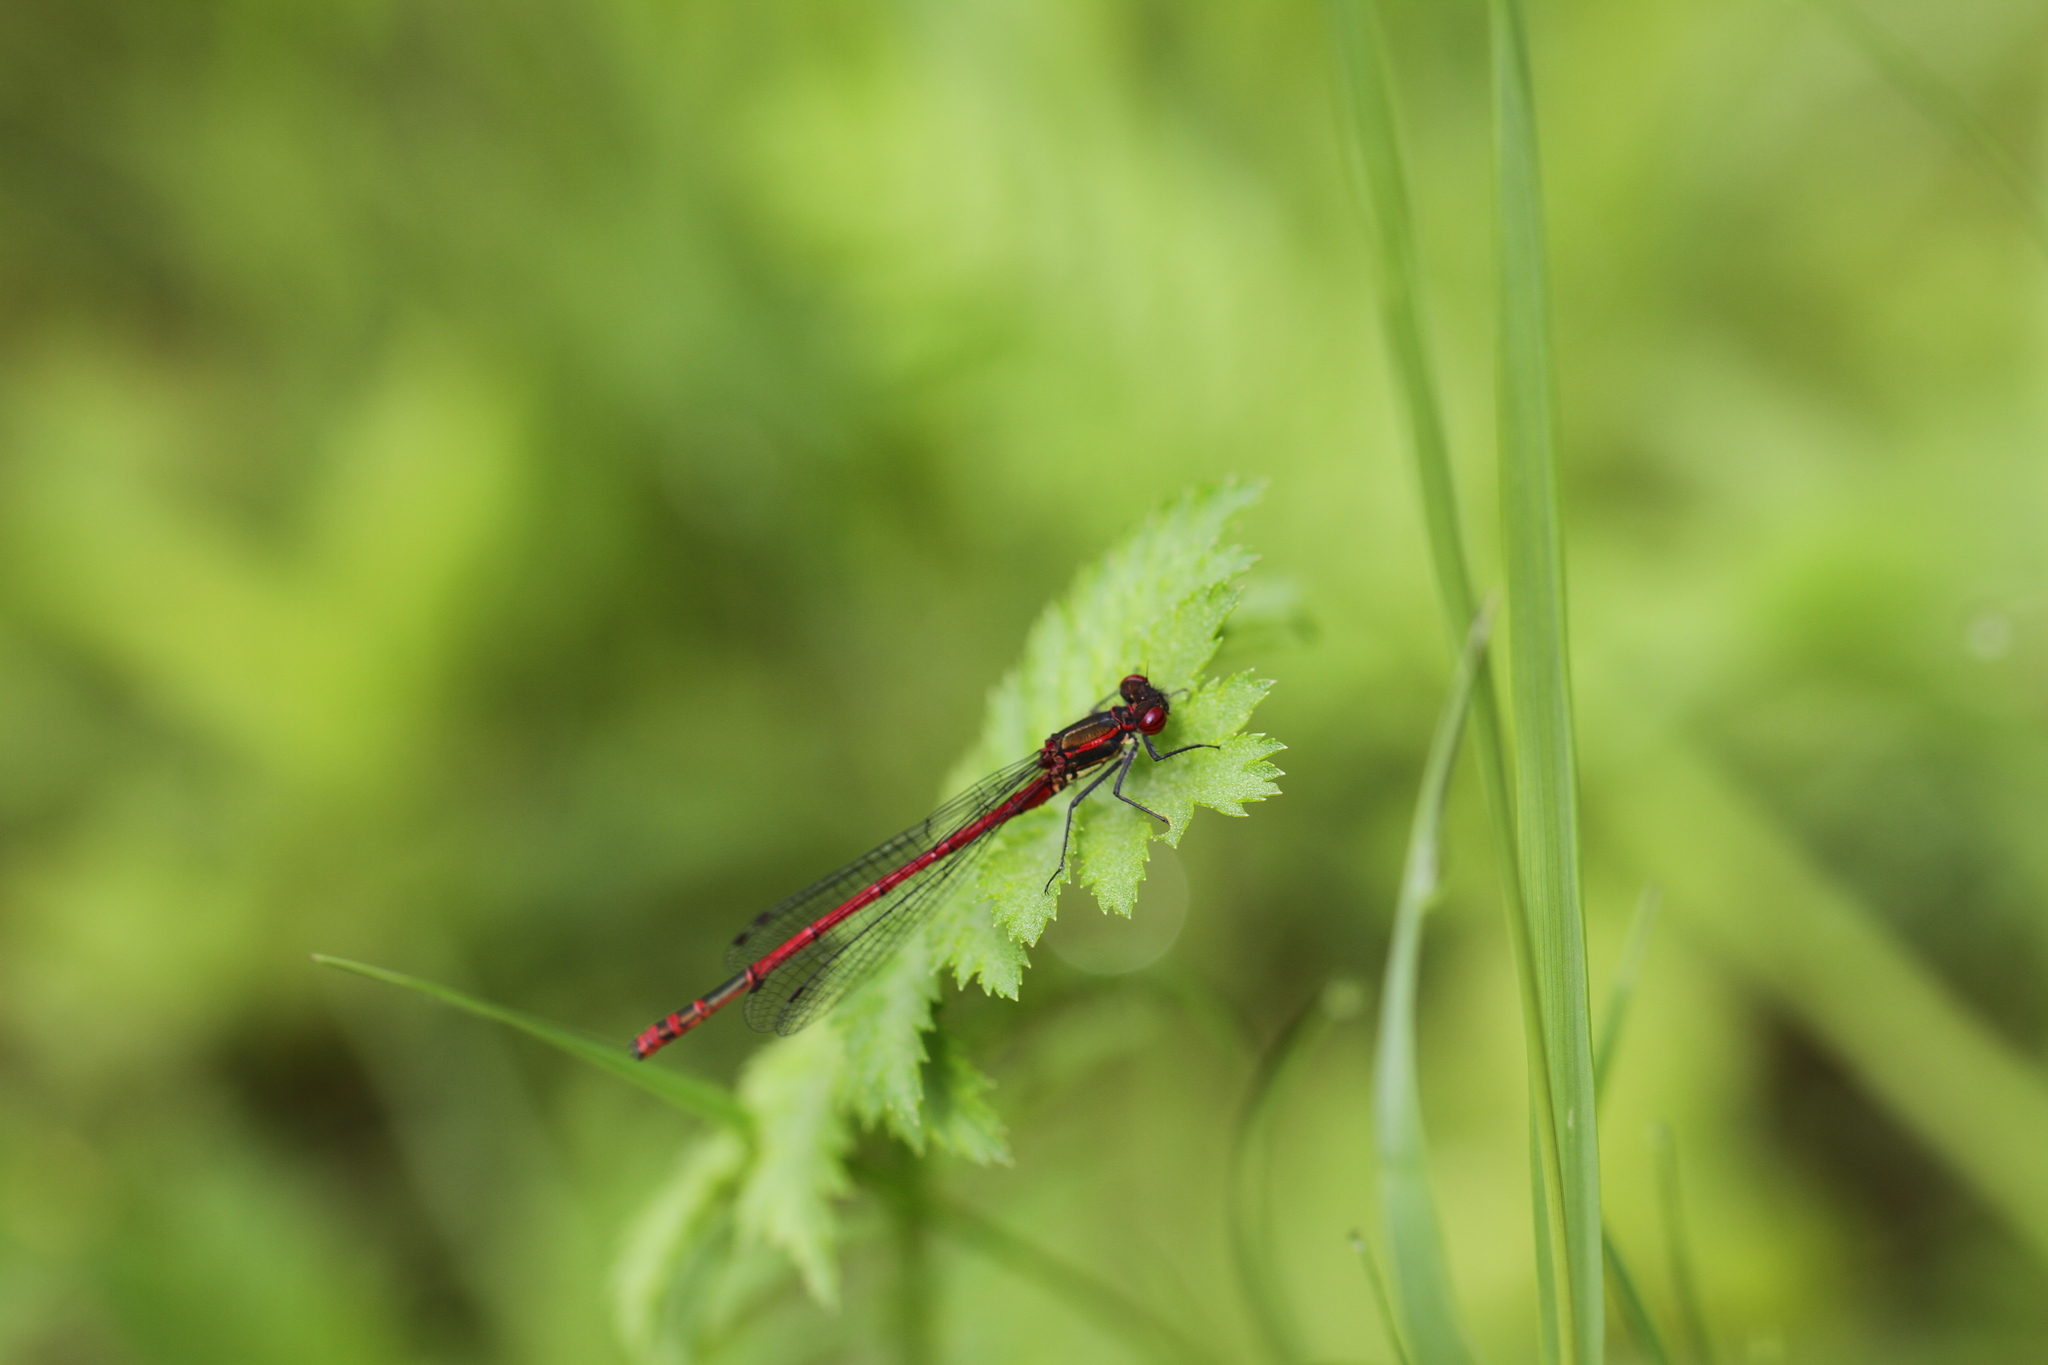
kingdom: Animalia
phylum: Arthropoda
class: Insecta
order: Odonata
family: Coenagrionidae
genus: Pyrrhosoma
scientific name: Pyrrhosoma nymphula
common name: Large red damsel
